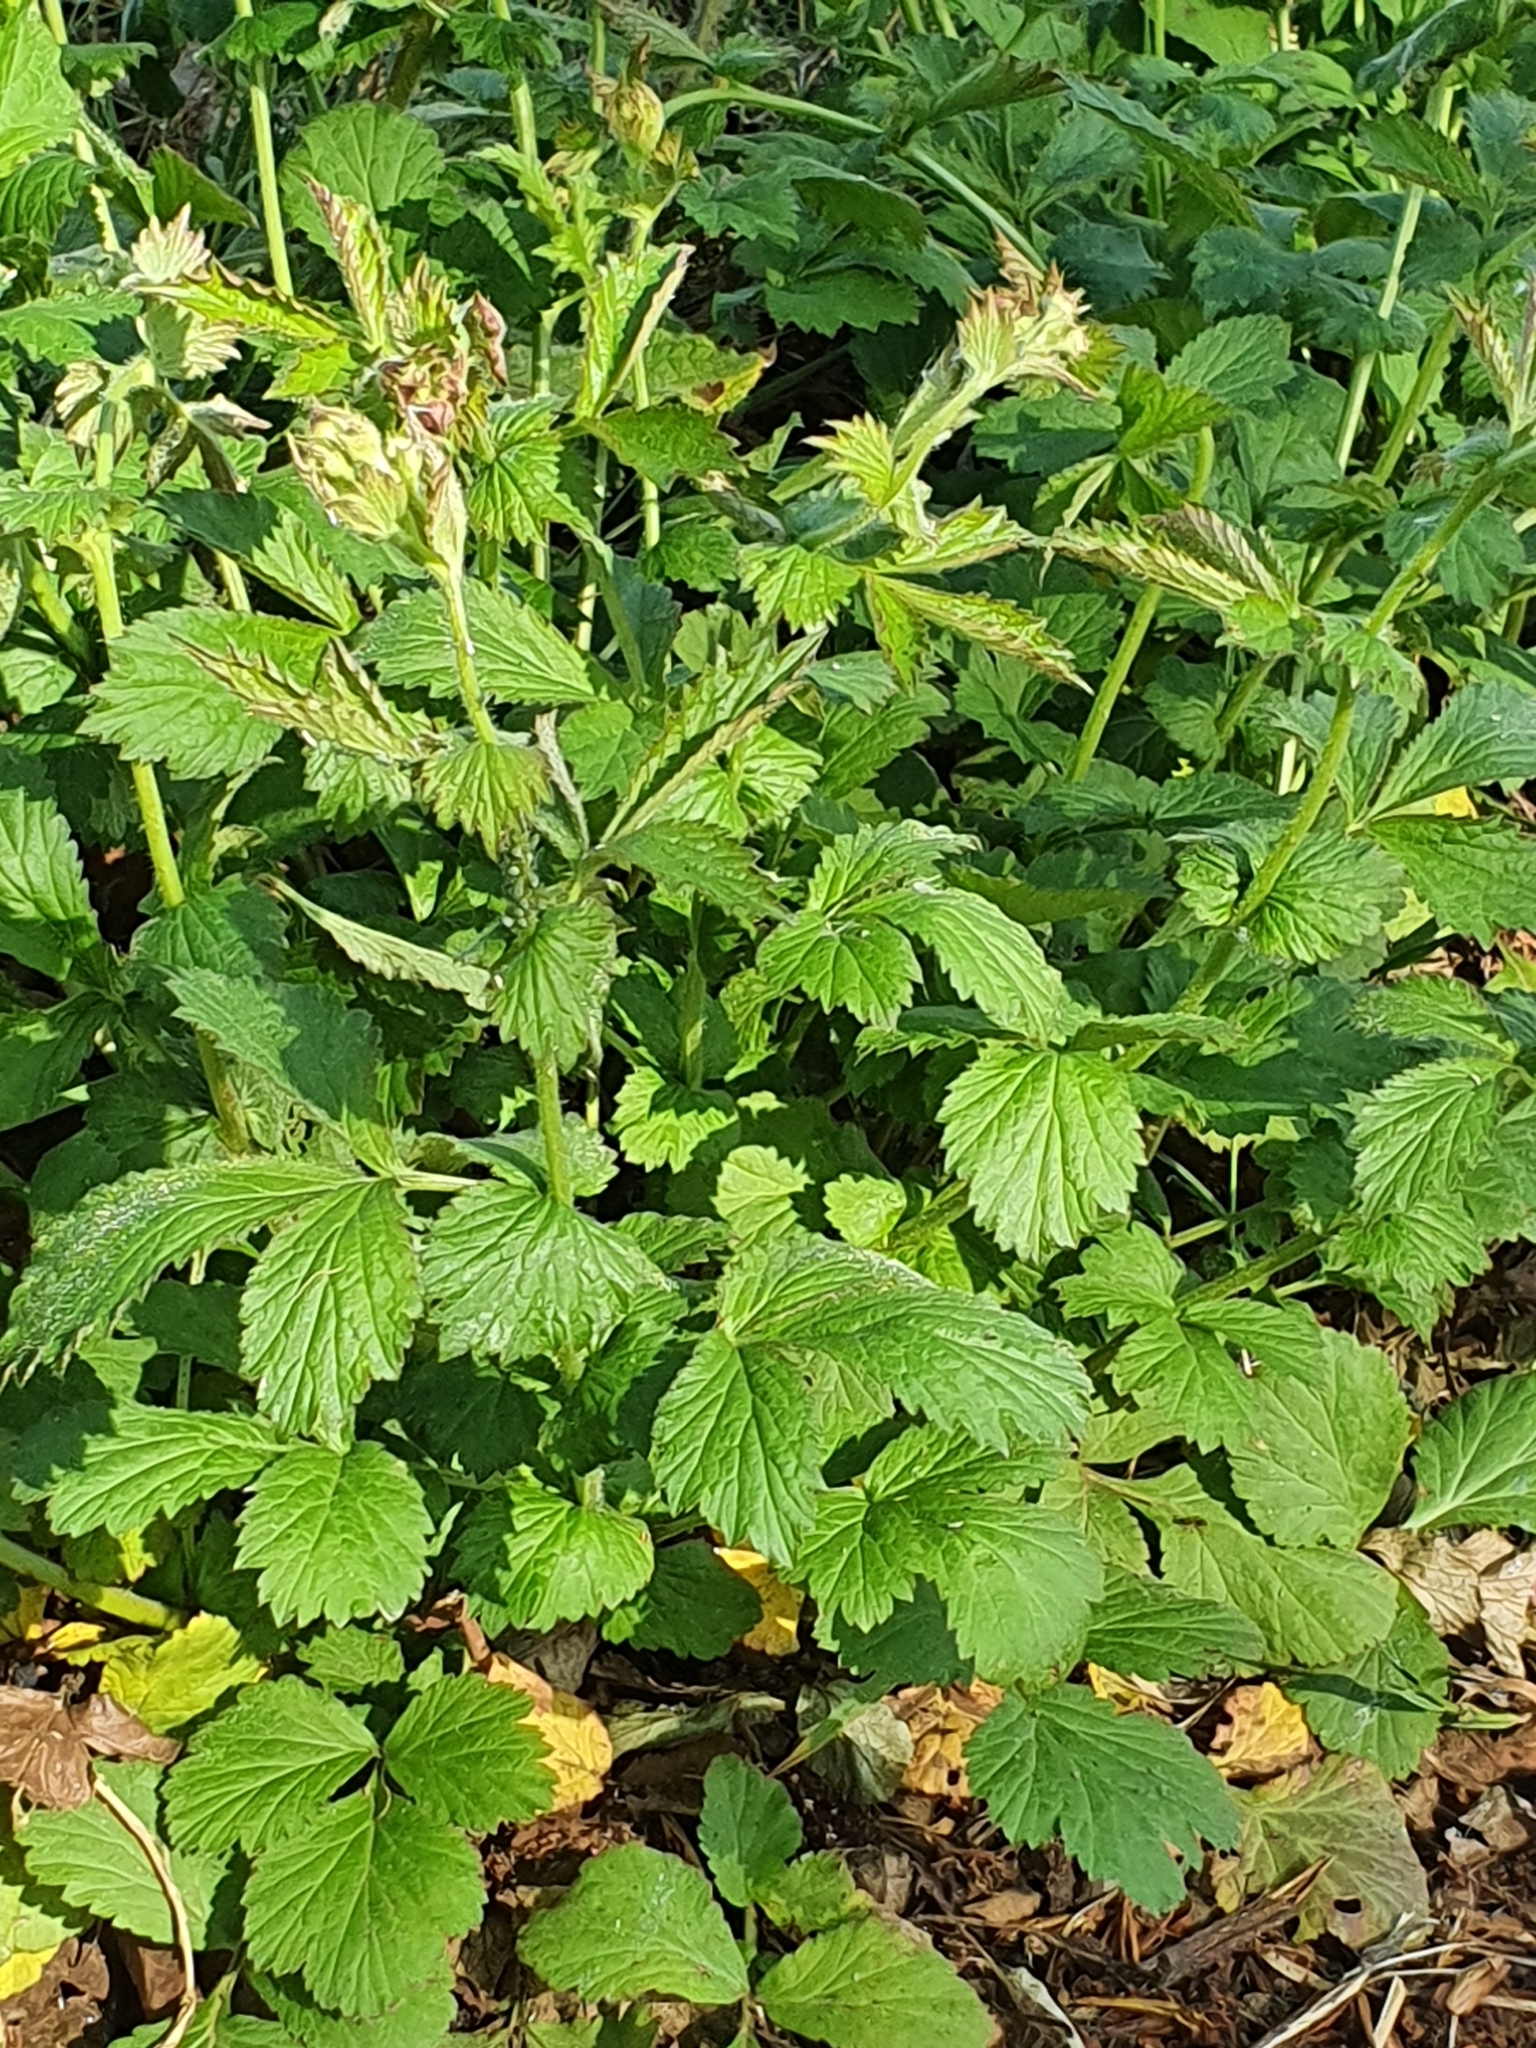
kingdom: Plantae
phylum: Tracheophyta
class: Magnoliopsida
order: Rosales
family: Rosaceae
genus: Geum
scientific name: Geum urbanum
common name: Wood avens
